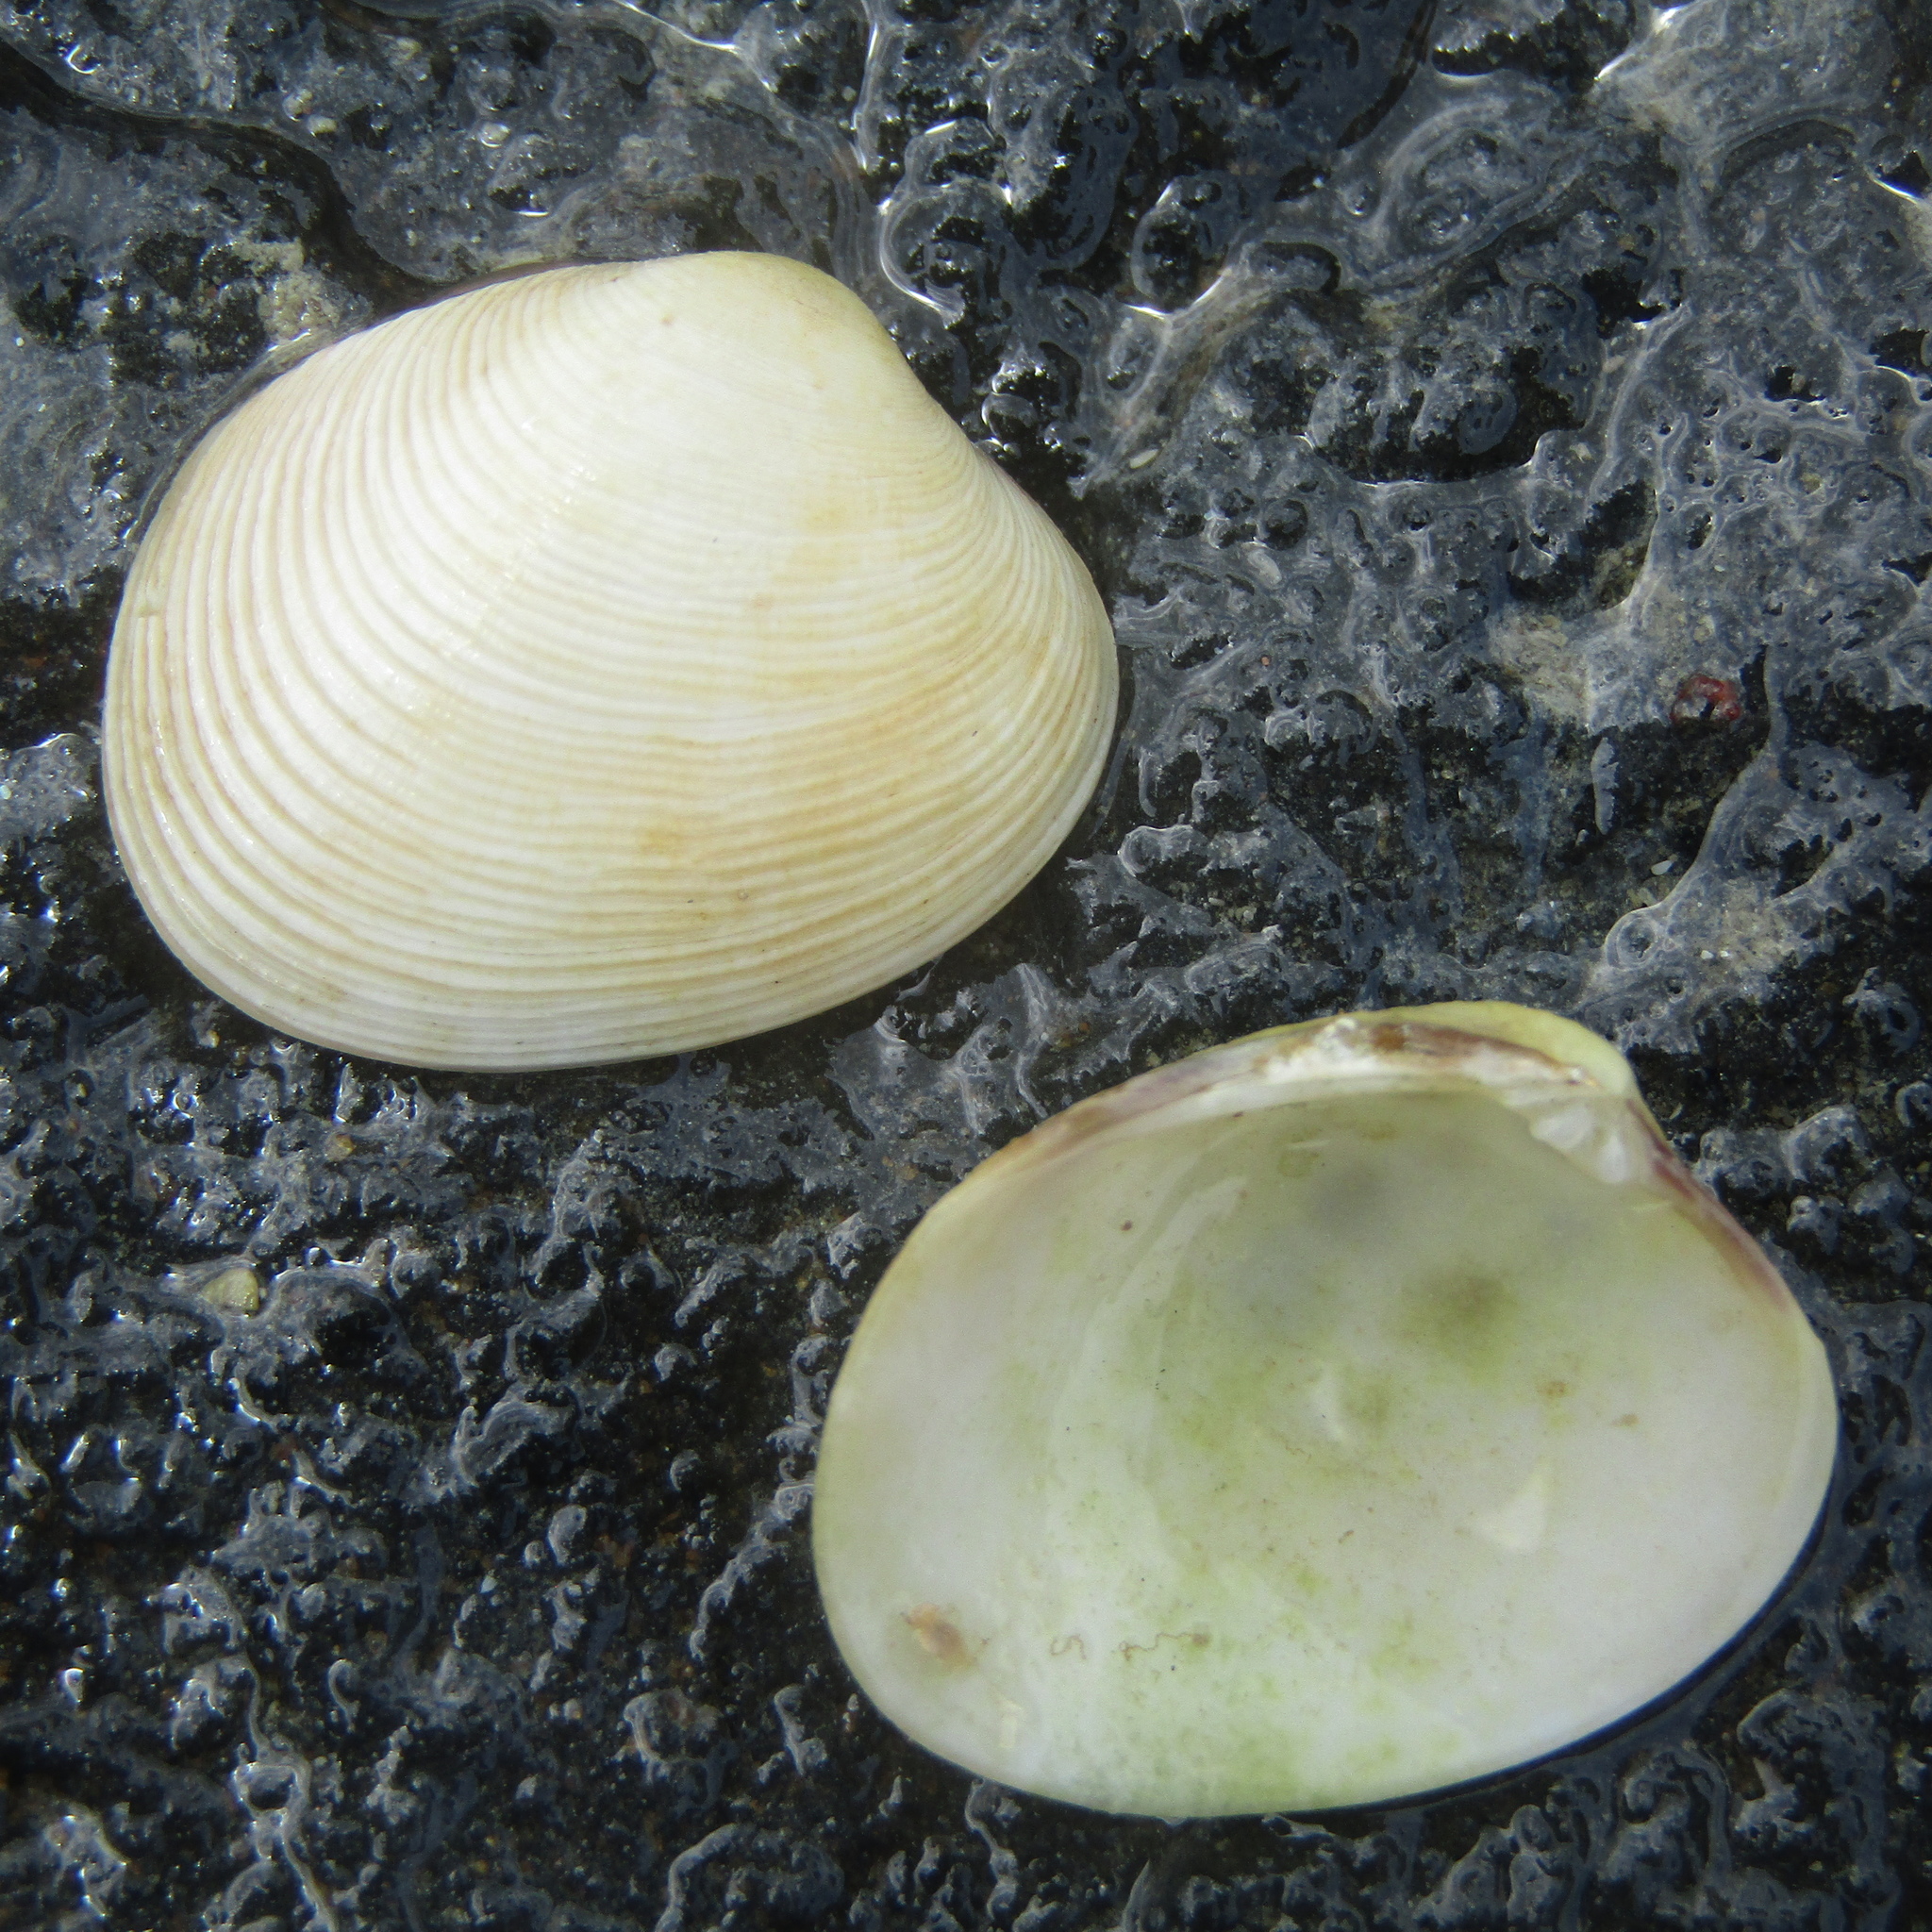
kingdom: Animalia
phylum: Mollusca
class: Bivalvia
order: Venerida
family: Veneridae
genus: Venerupis
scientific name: Venerupis largillierti
